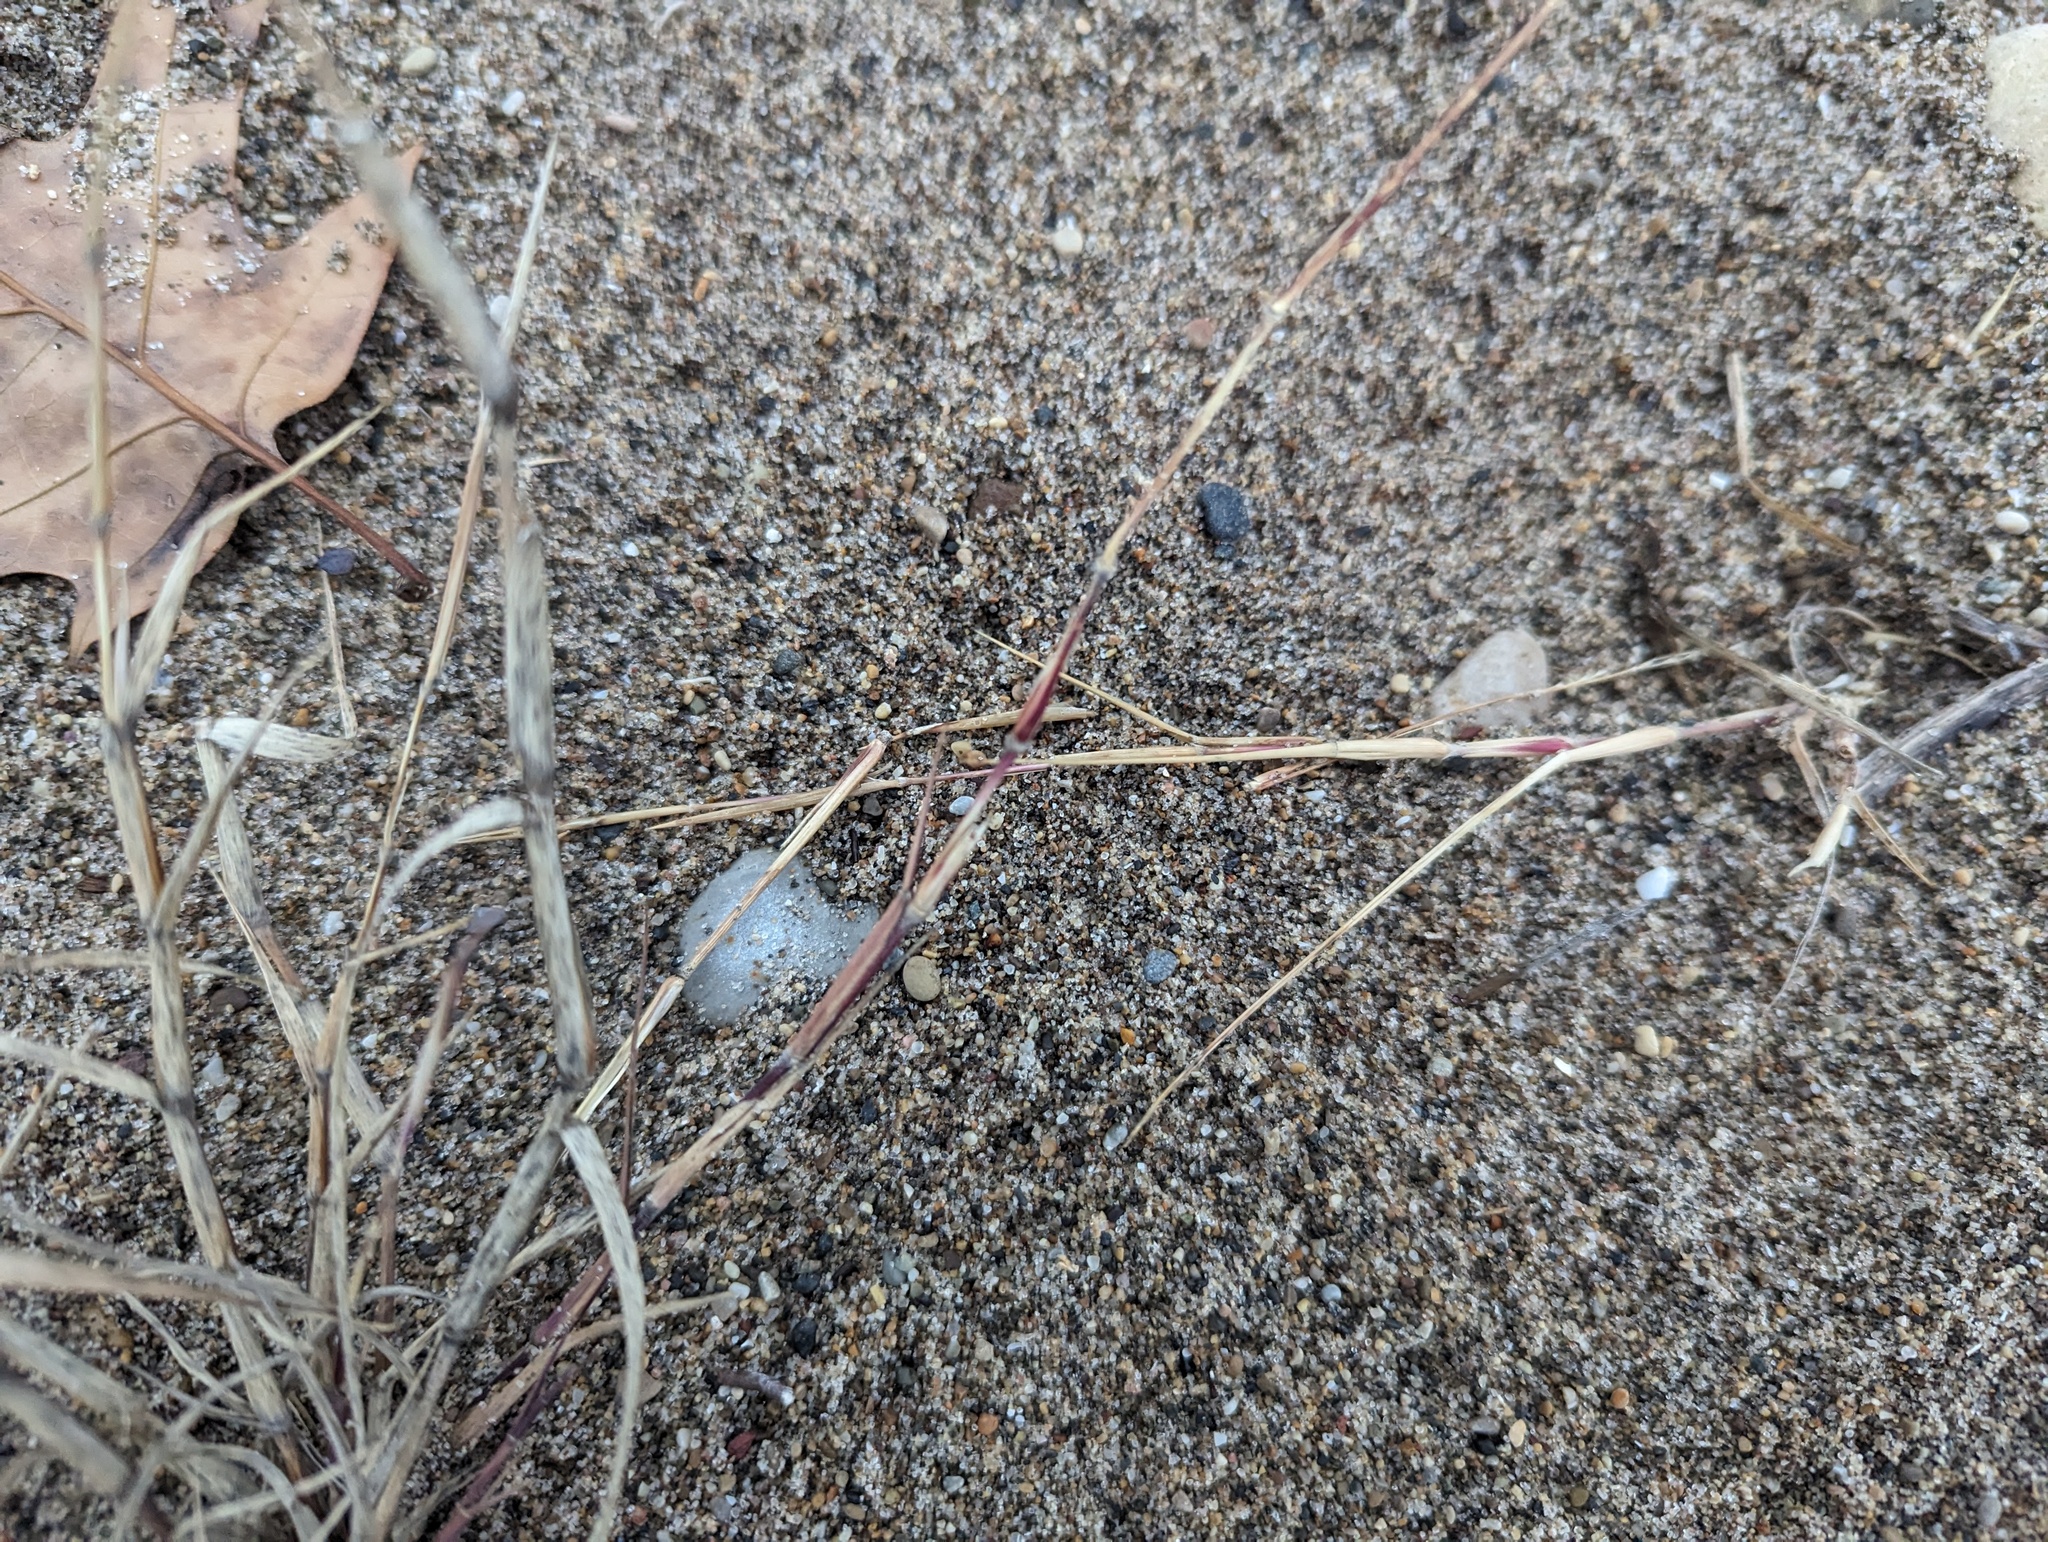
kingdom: Plantae
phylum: Tracheophyta
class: Liliopsida
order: Poales
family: Poaceae
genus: Triplasis
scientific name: Triplasis purpurea
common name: Purple sand grass
